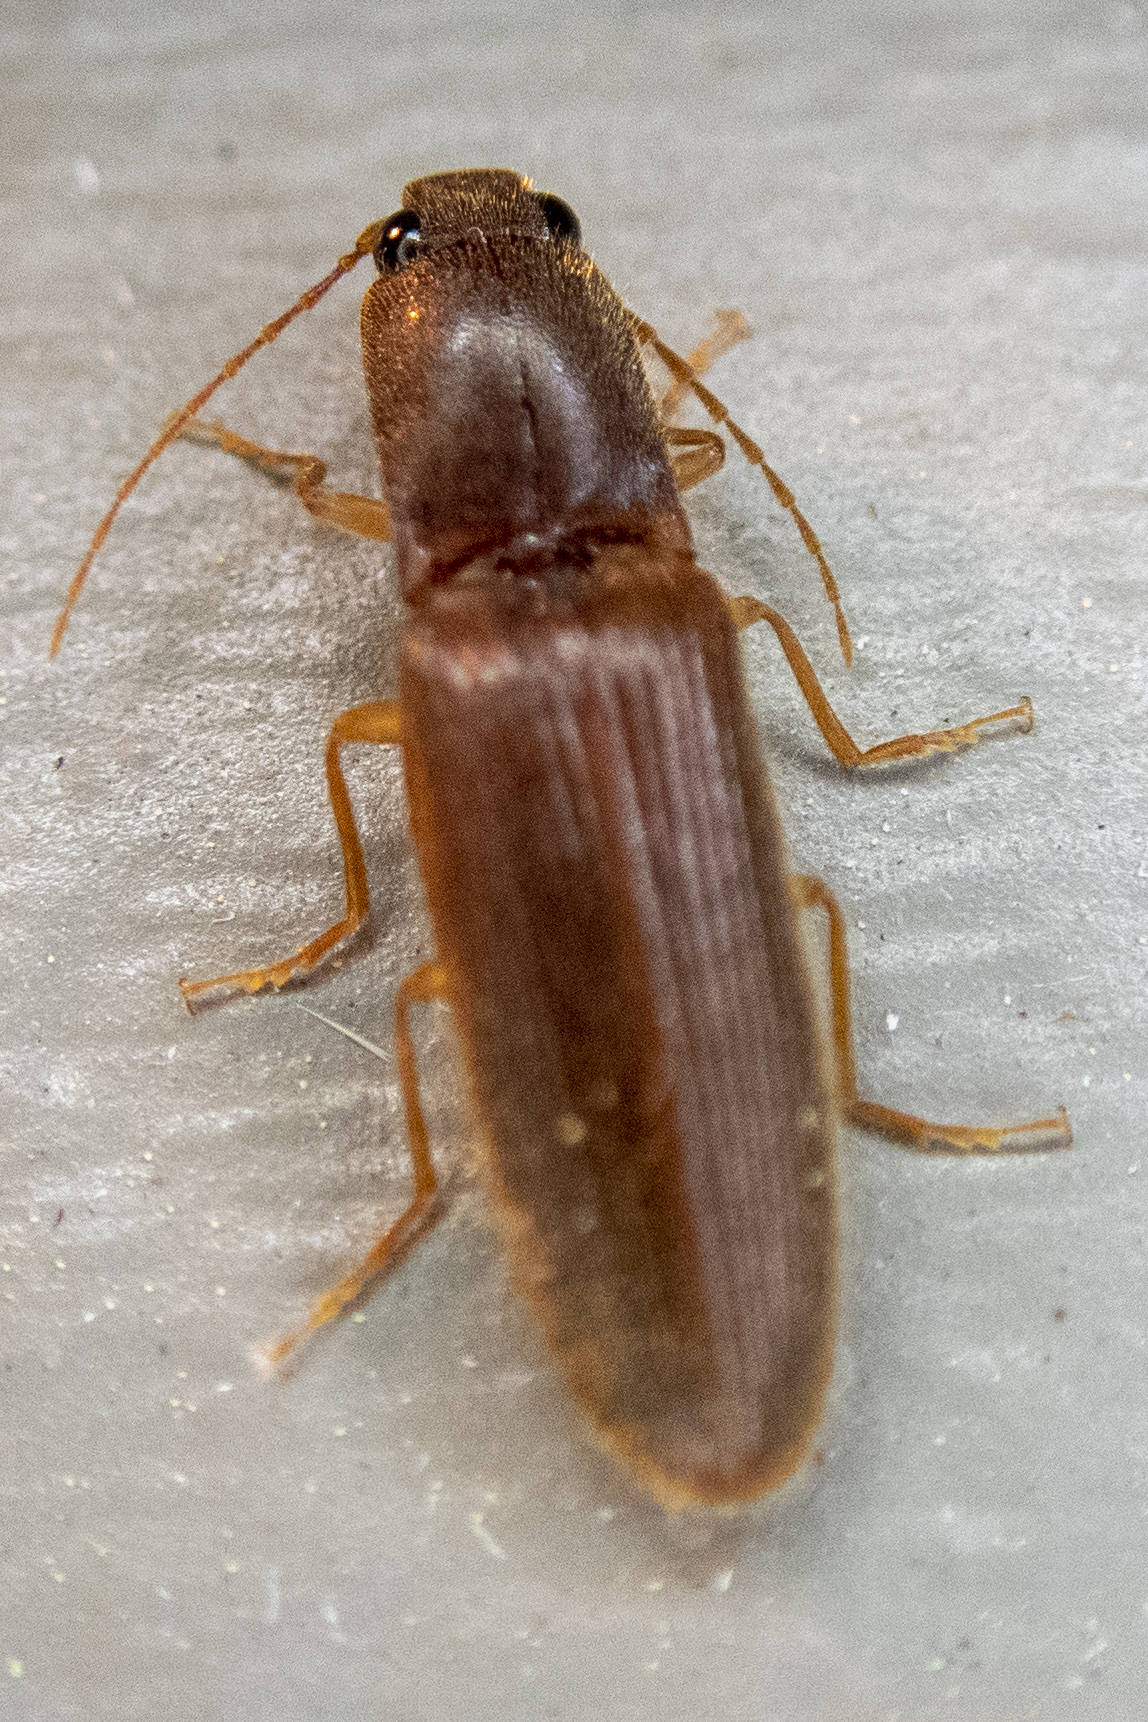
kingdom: Animalia
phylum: Arthropoda
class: Insecta
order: Coleoptera
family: Elateridae
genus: Athous
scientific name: Athous cucullatus
